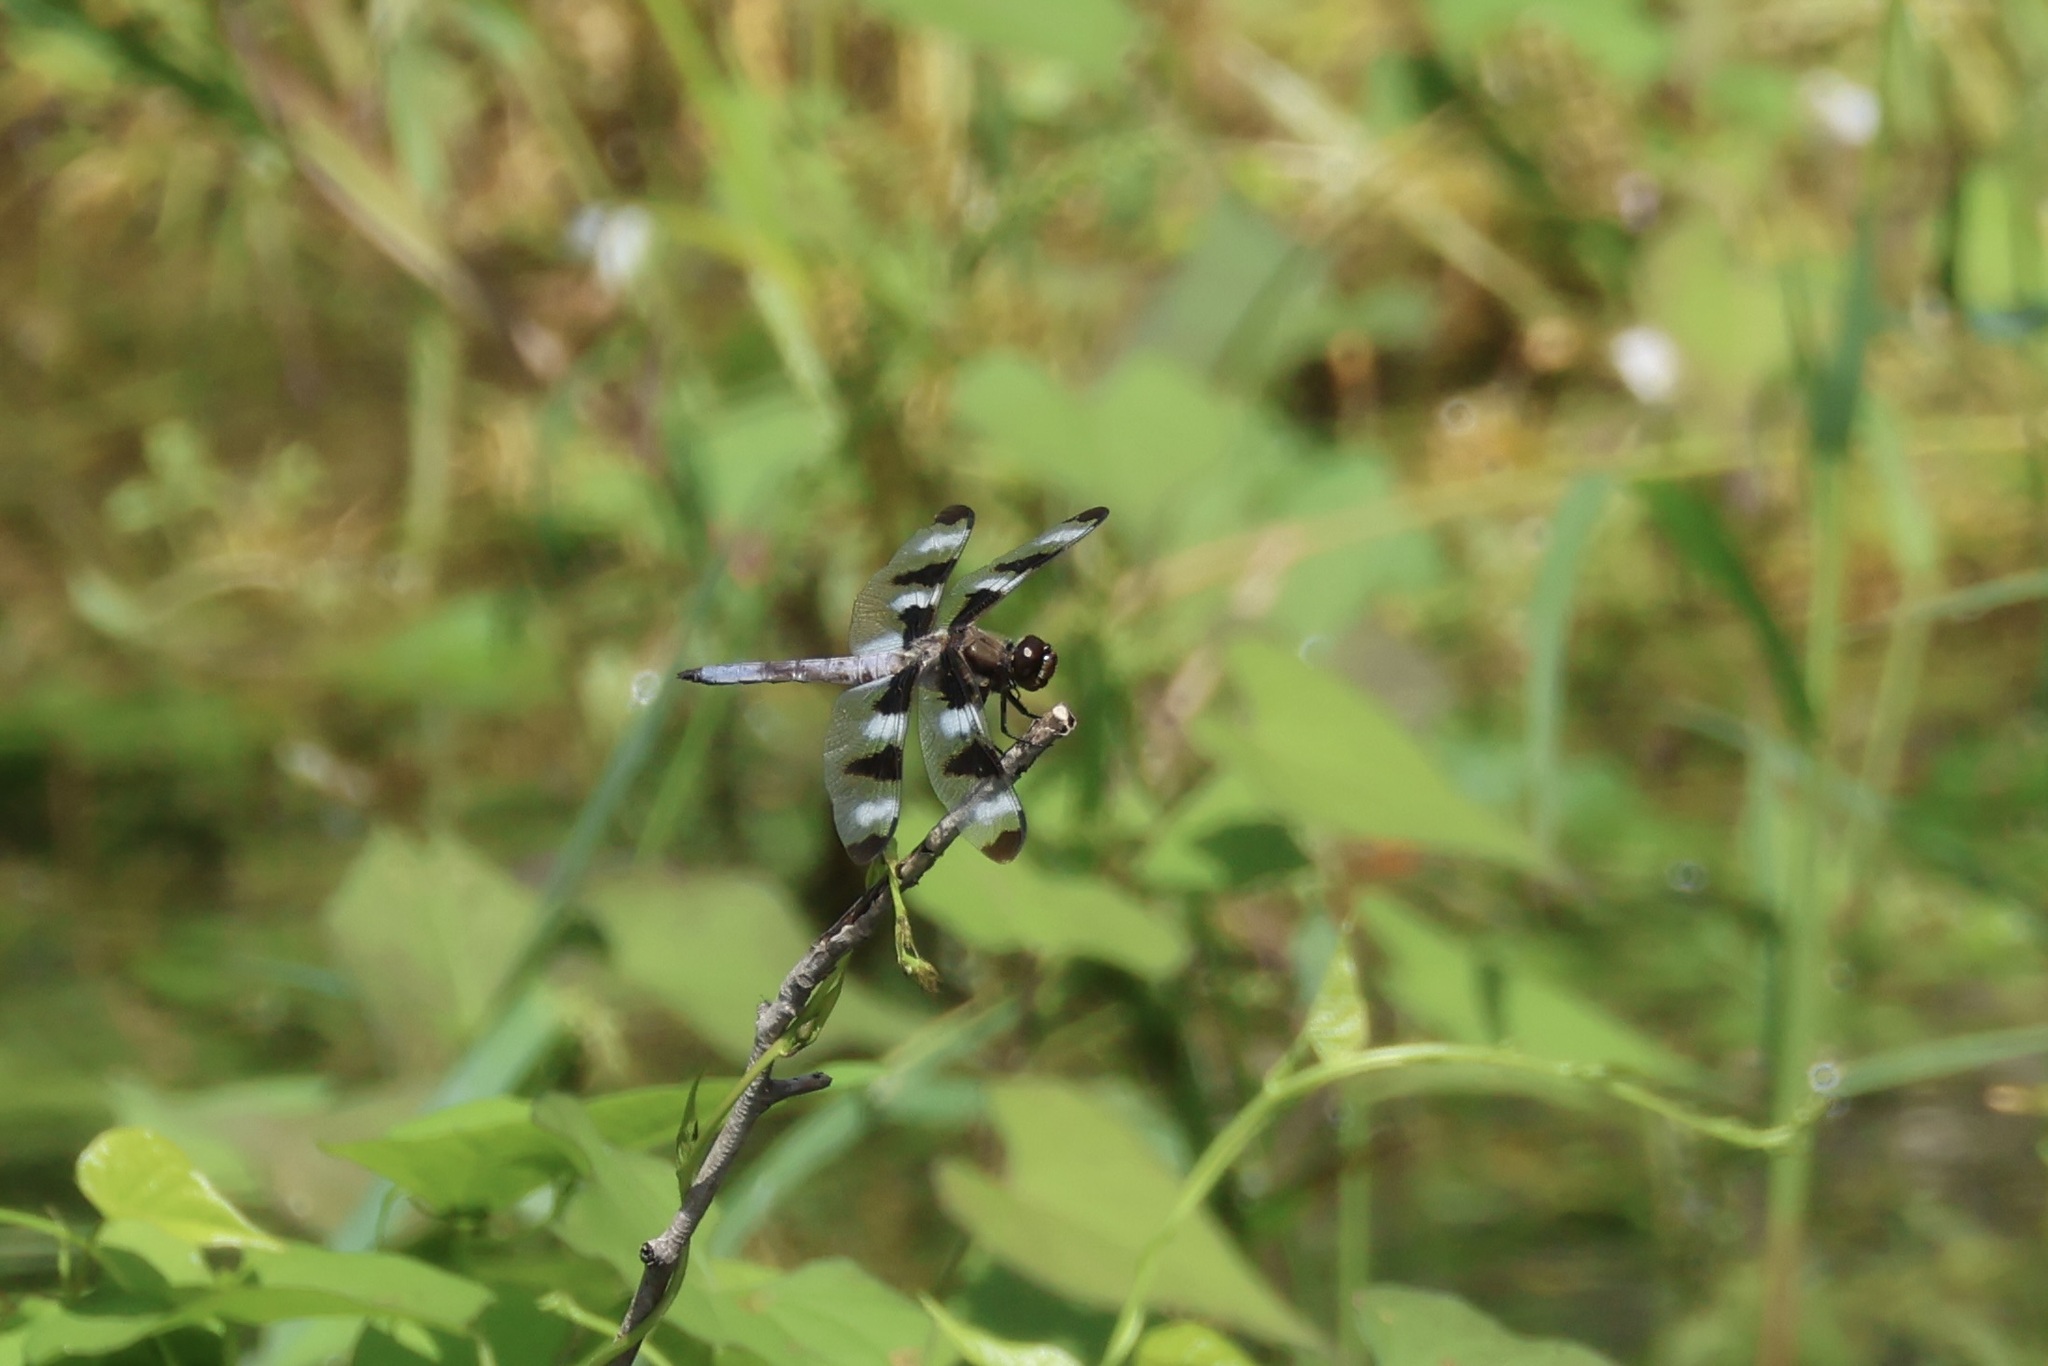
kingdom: Animalia
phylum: Arthropoda
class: Insecta
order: Odonata
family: Libellulidae
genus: Libellula
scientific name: Libellula pulchella
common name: Twelve-spotted skimmer
